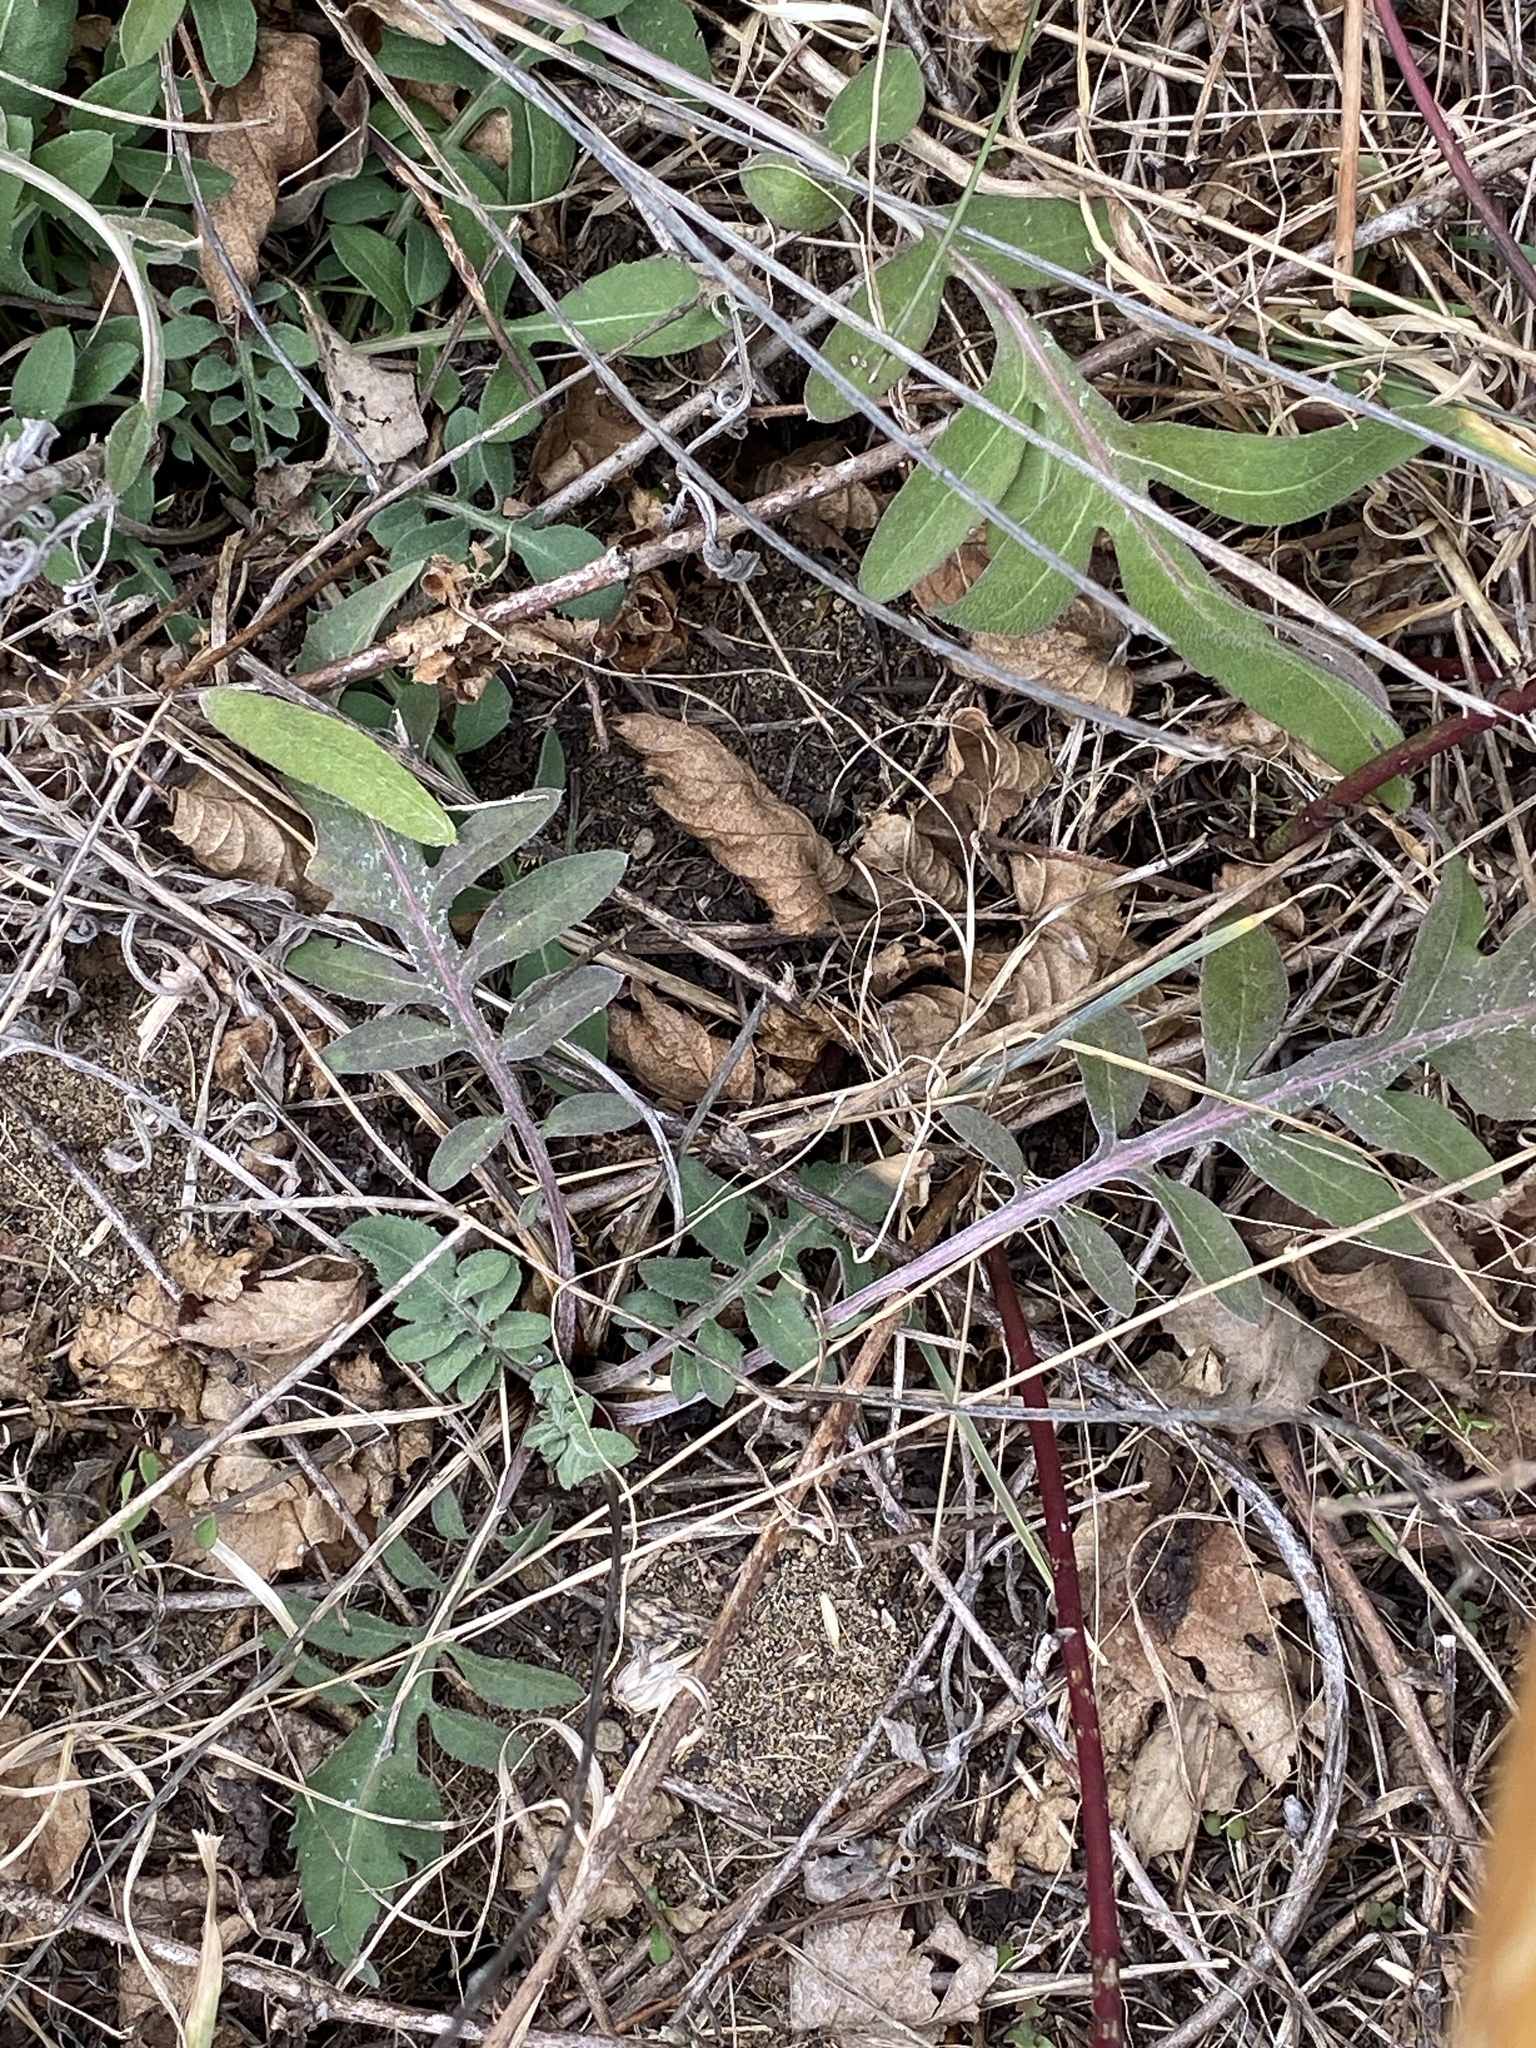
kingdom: Plantae
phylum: Tracheophyta
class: Magnoliopsida
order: Asterales
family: Asteraceae
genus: Centaurea
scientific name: Centaurea stoebe
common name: Spotted knapweed
